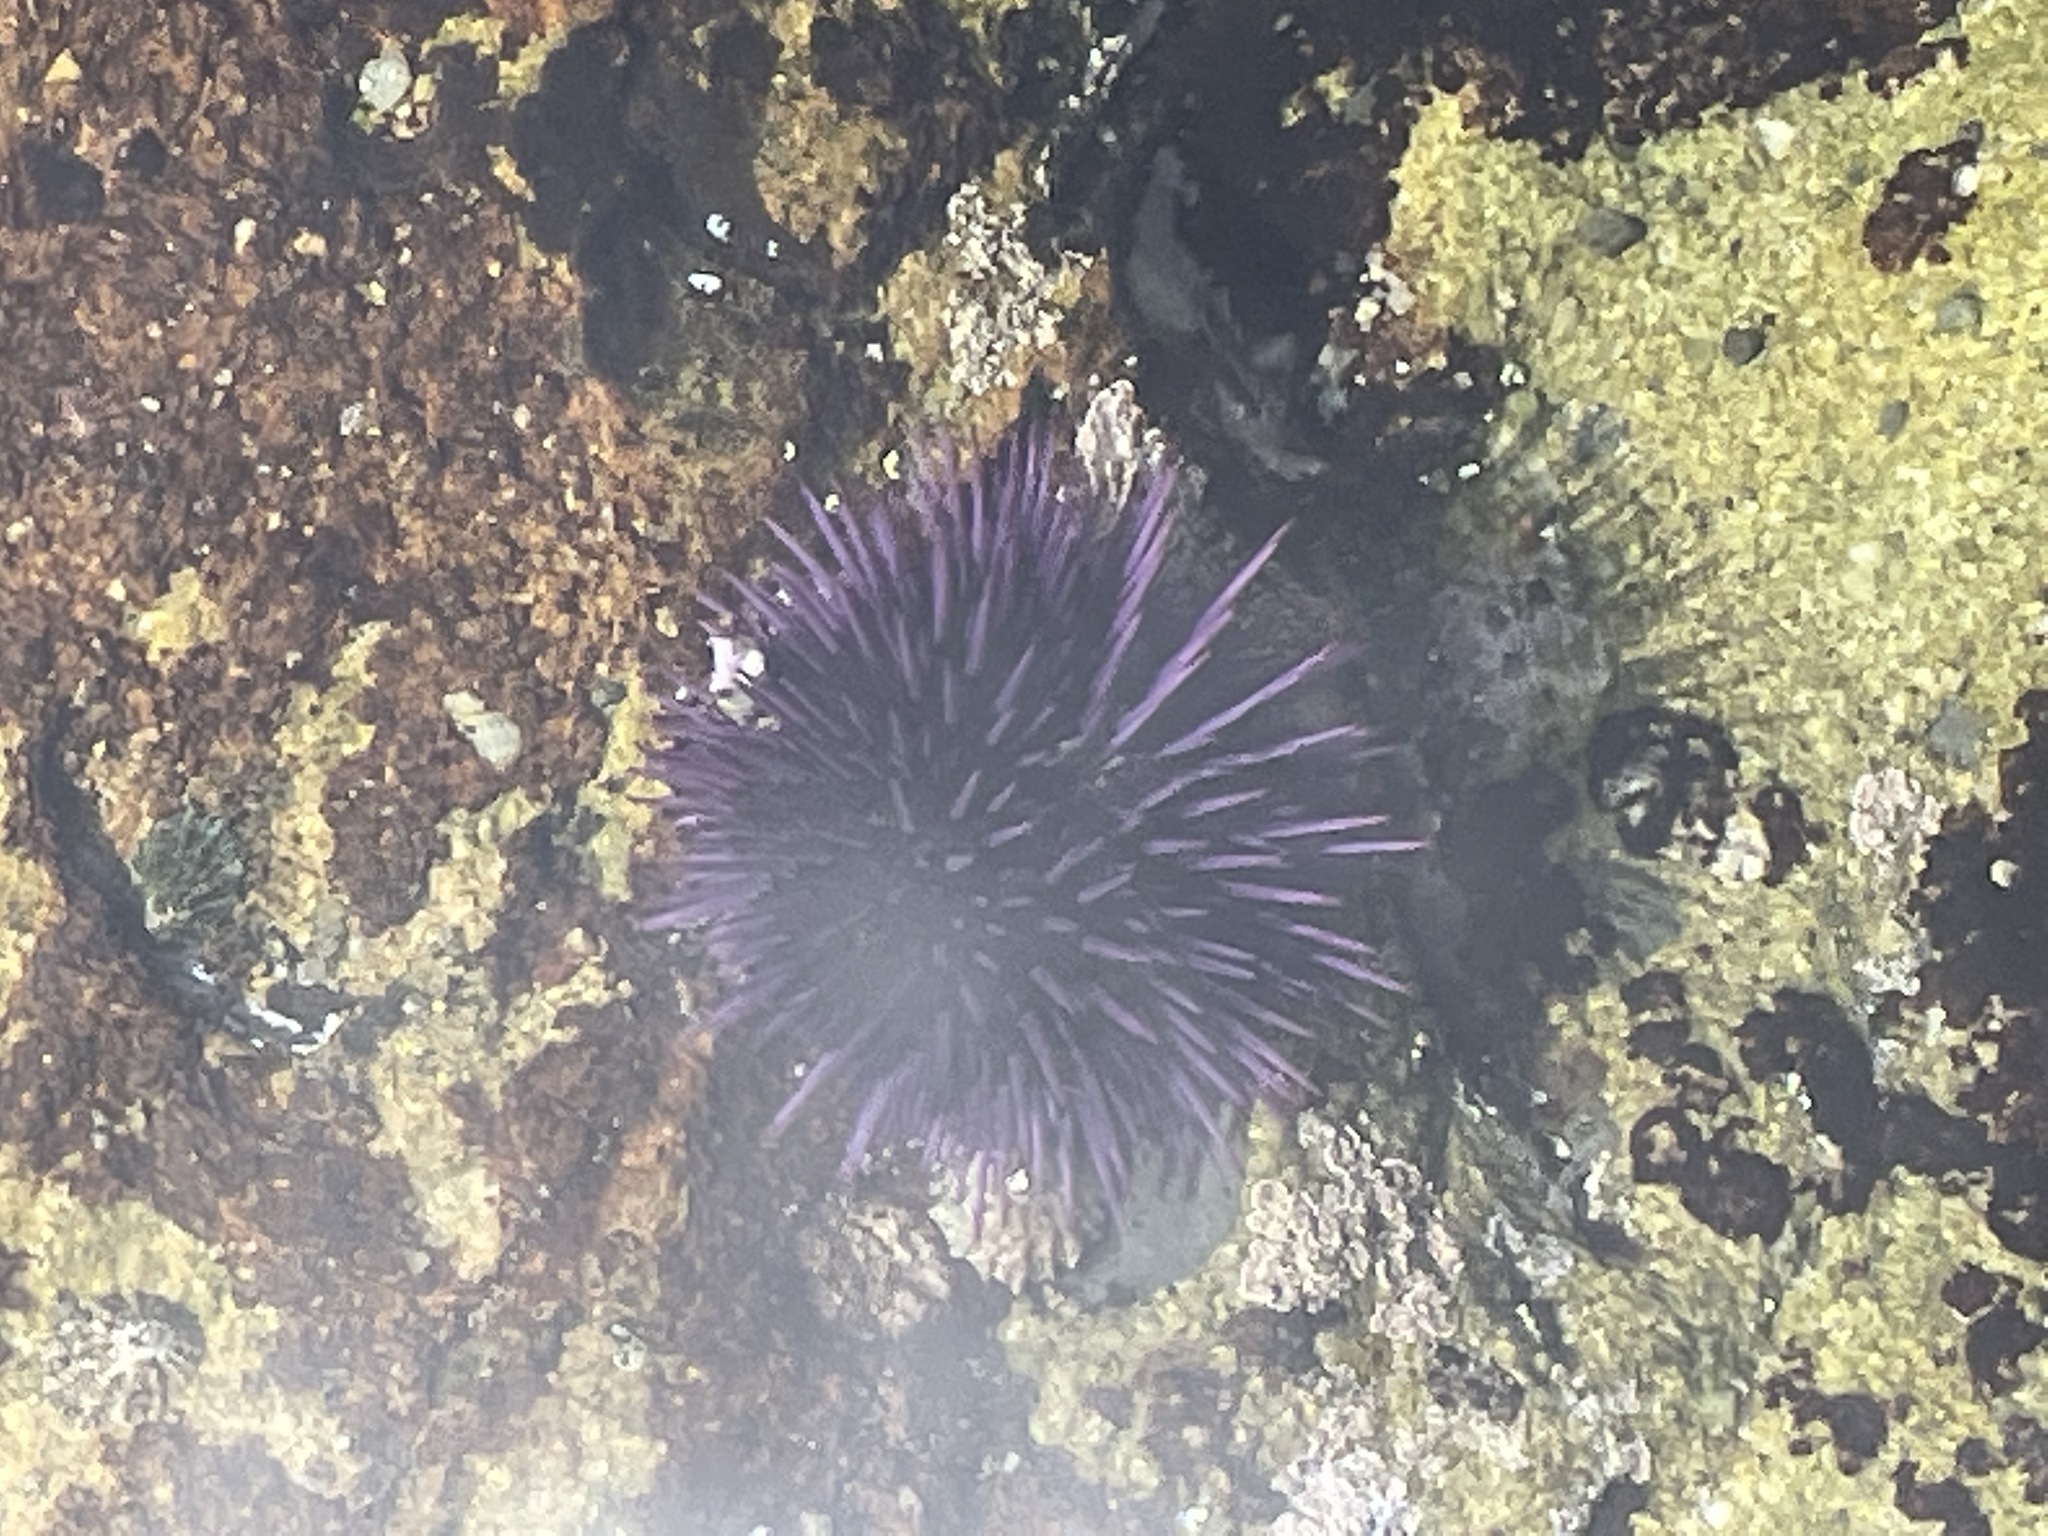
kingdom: Animalia
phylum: Echinodermata
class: Echinoidea
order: Camarodonta
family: Strongylocentrotidae
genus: Strongylocentrotus
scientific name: Strongylocentrotus purpuratus
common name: Purple sea urchin
